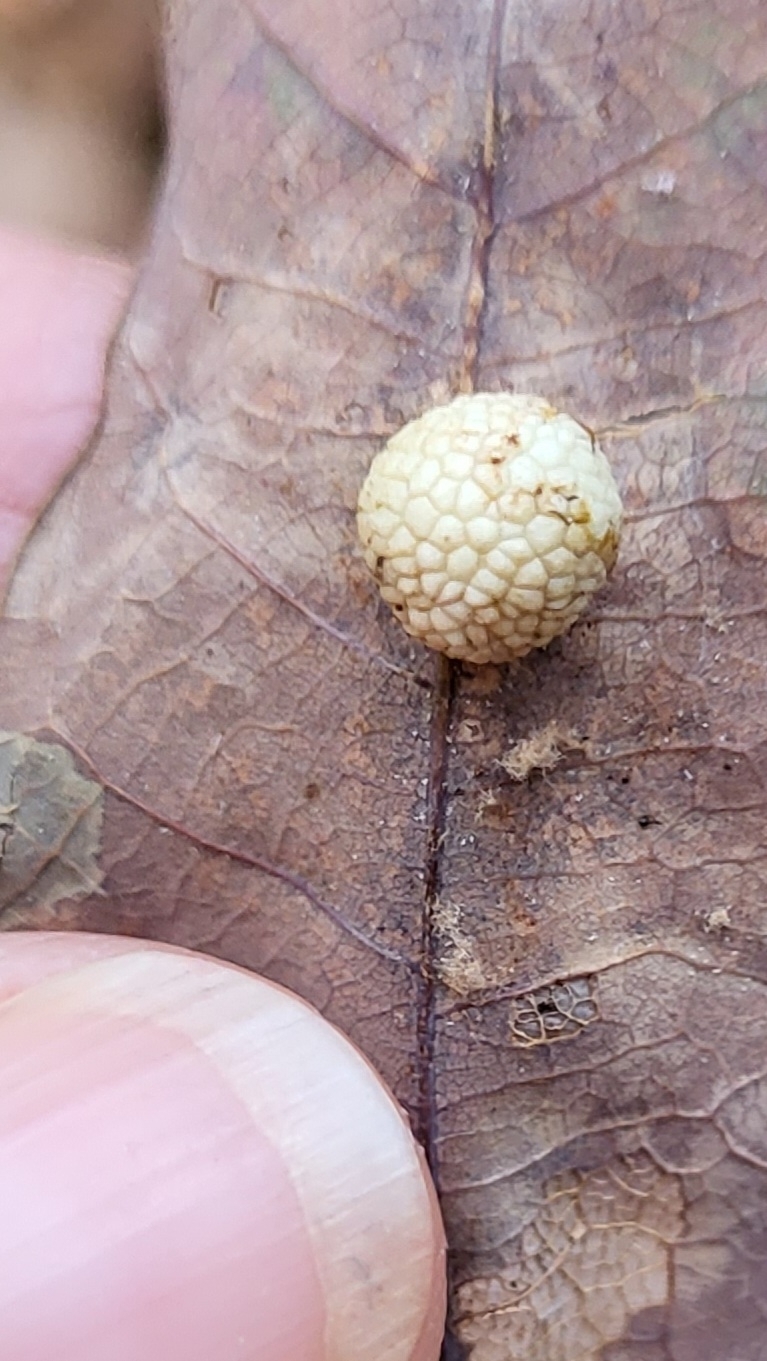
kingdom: Animalia
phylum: Arthropoda
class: Insecta
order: Hymenoptera
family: Cynipidae
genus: Acraspis
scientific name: Acraspis
